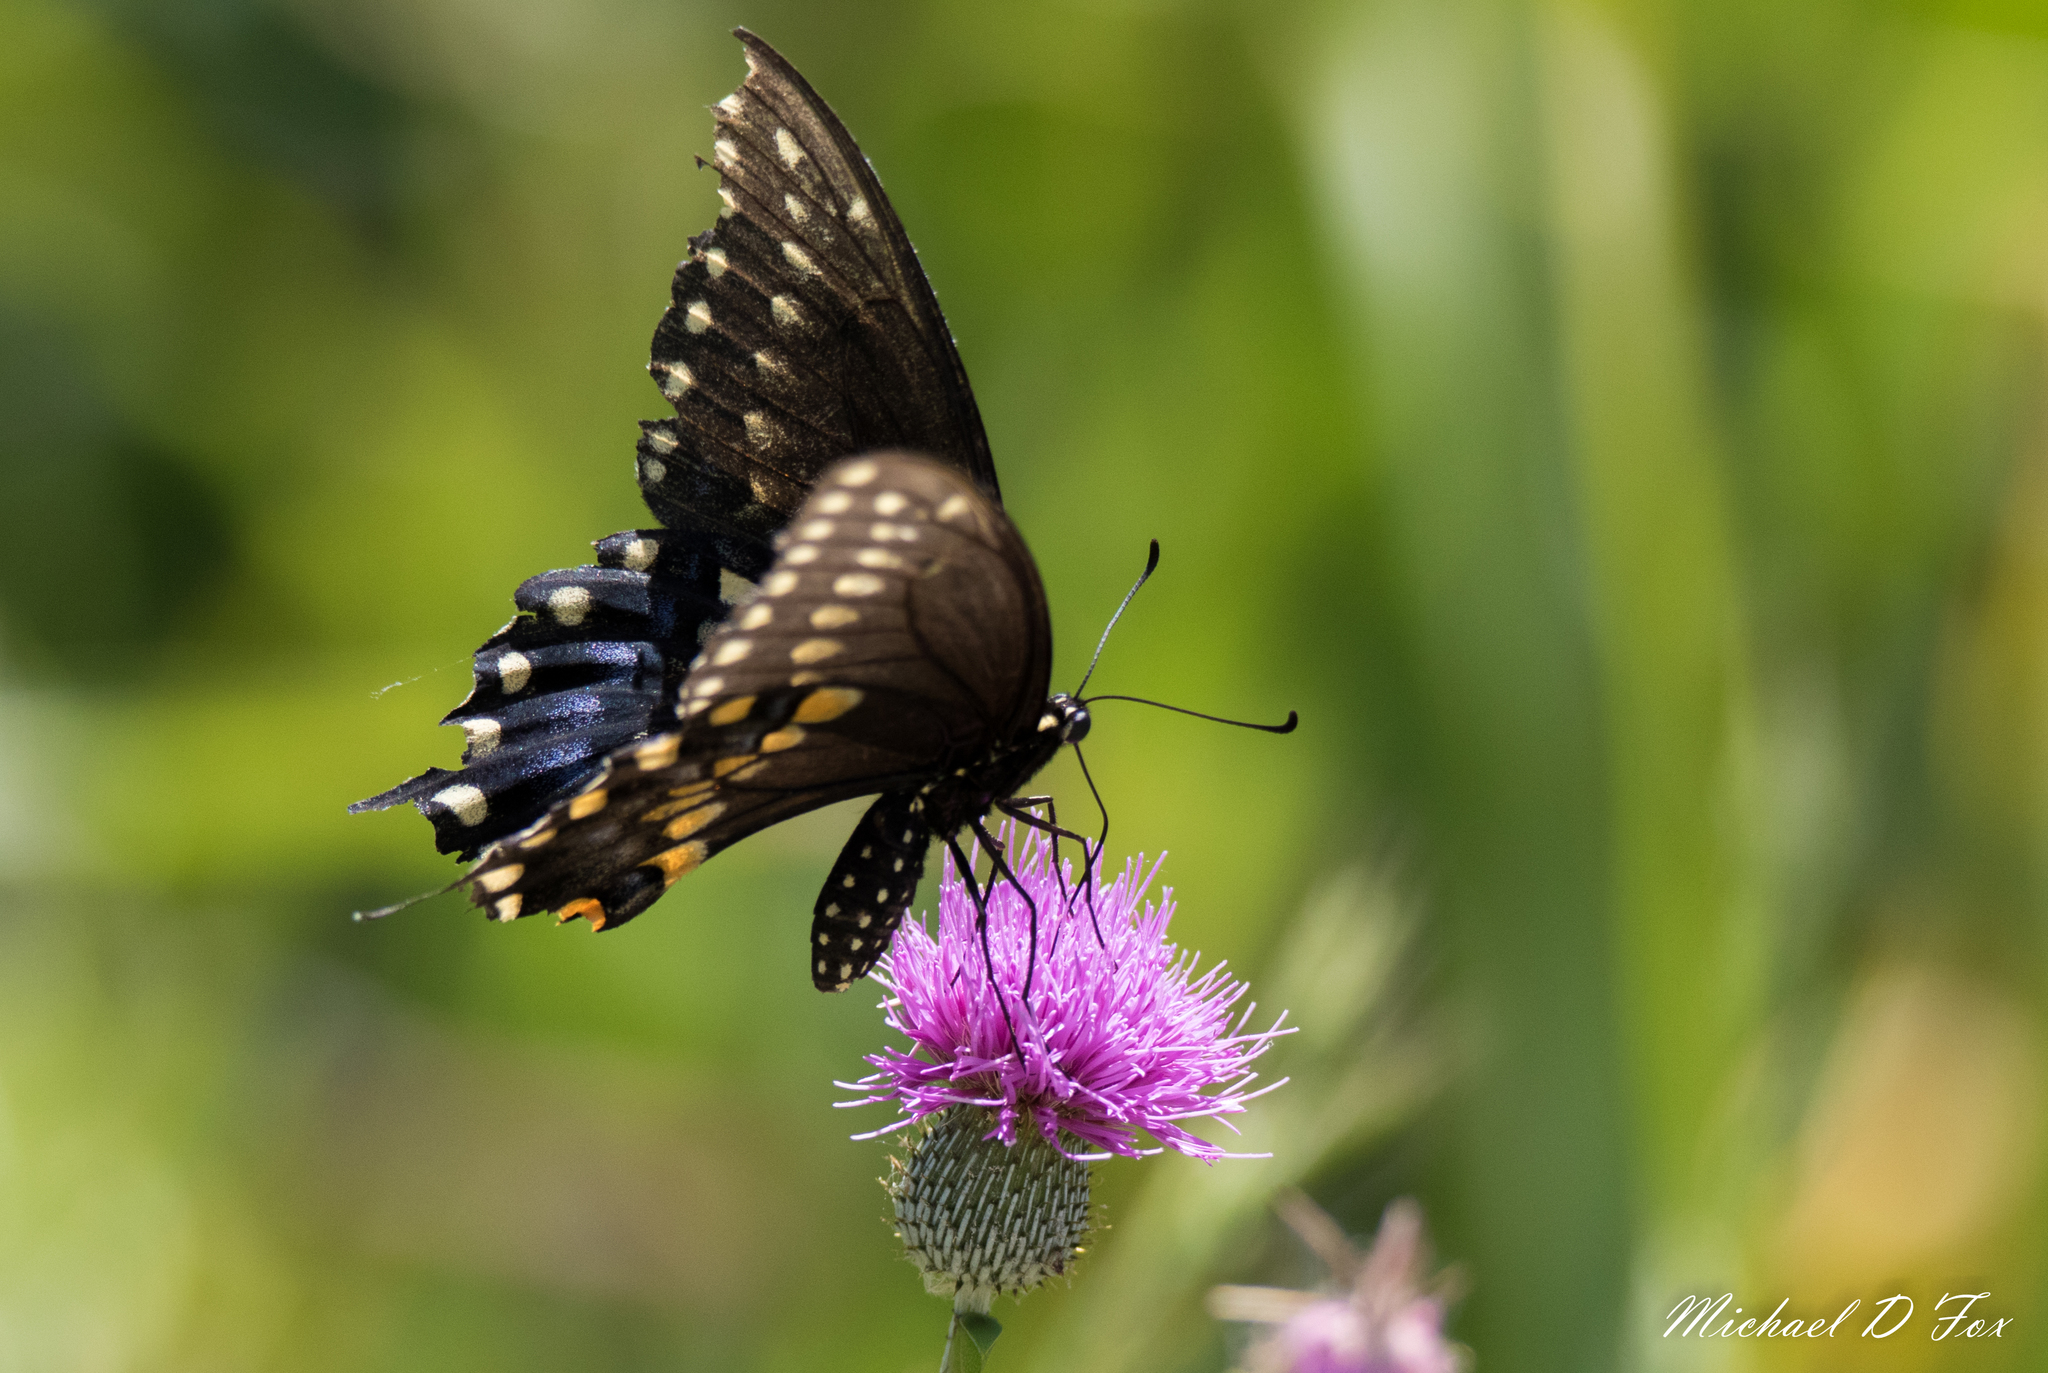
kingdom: Animalia
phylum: Arthropoda
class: Insecta
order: Lepidoptera
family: Papilionidae
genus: Papilio
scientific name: Papilio polyxenes
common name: Black swallowtail
